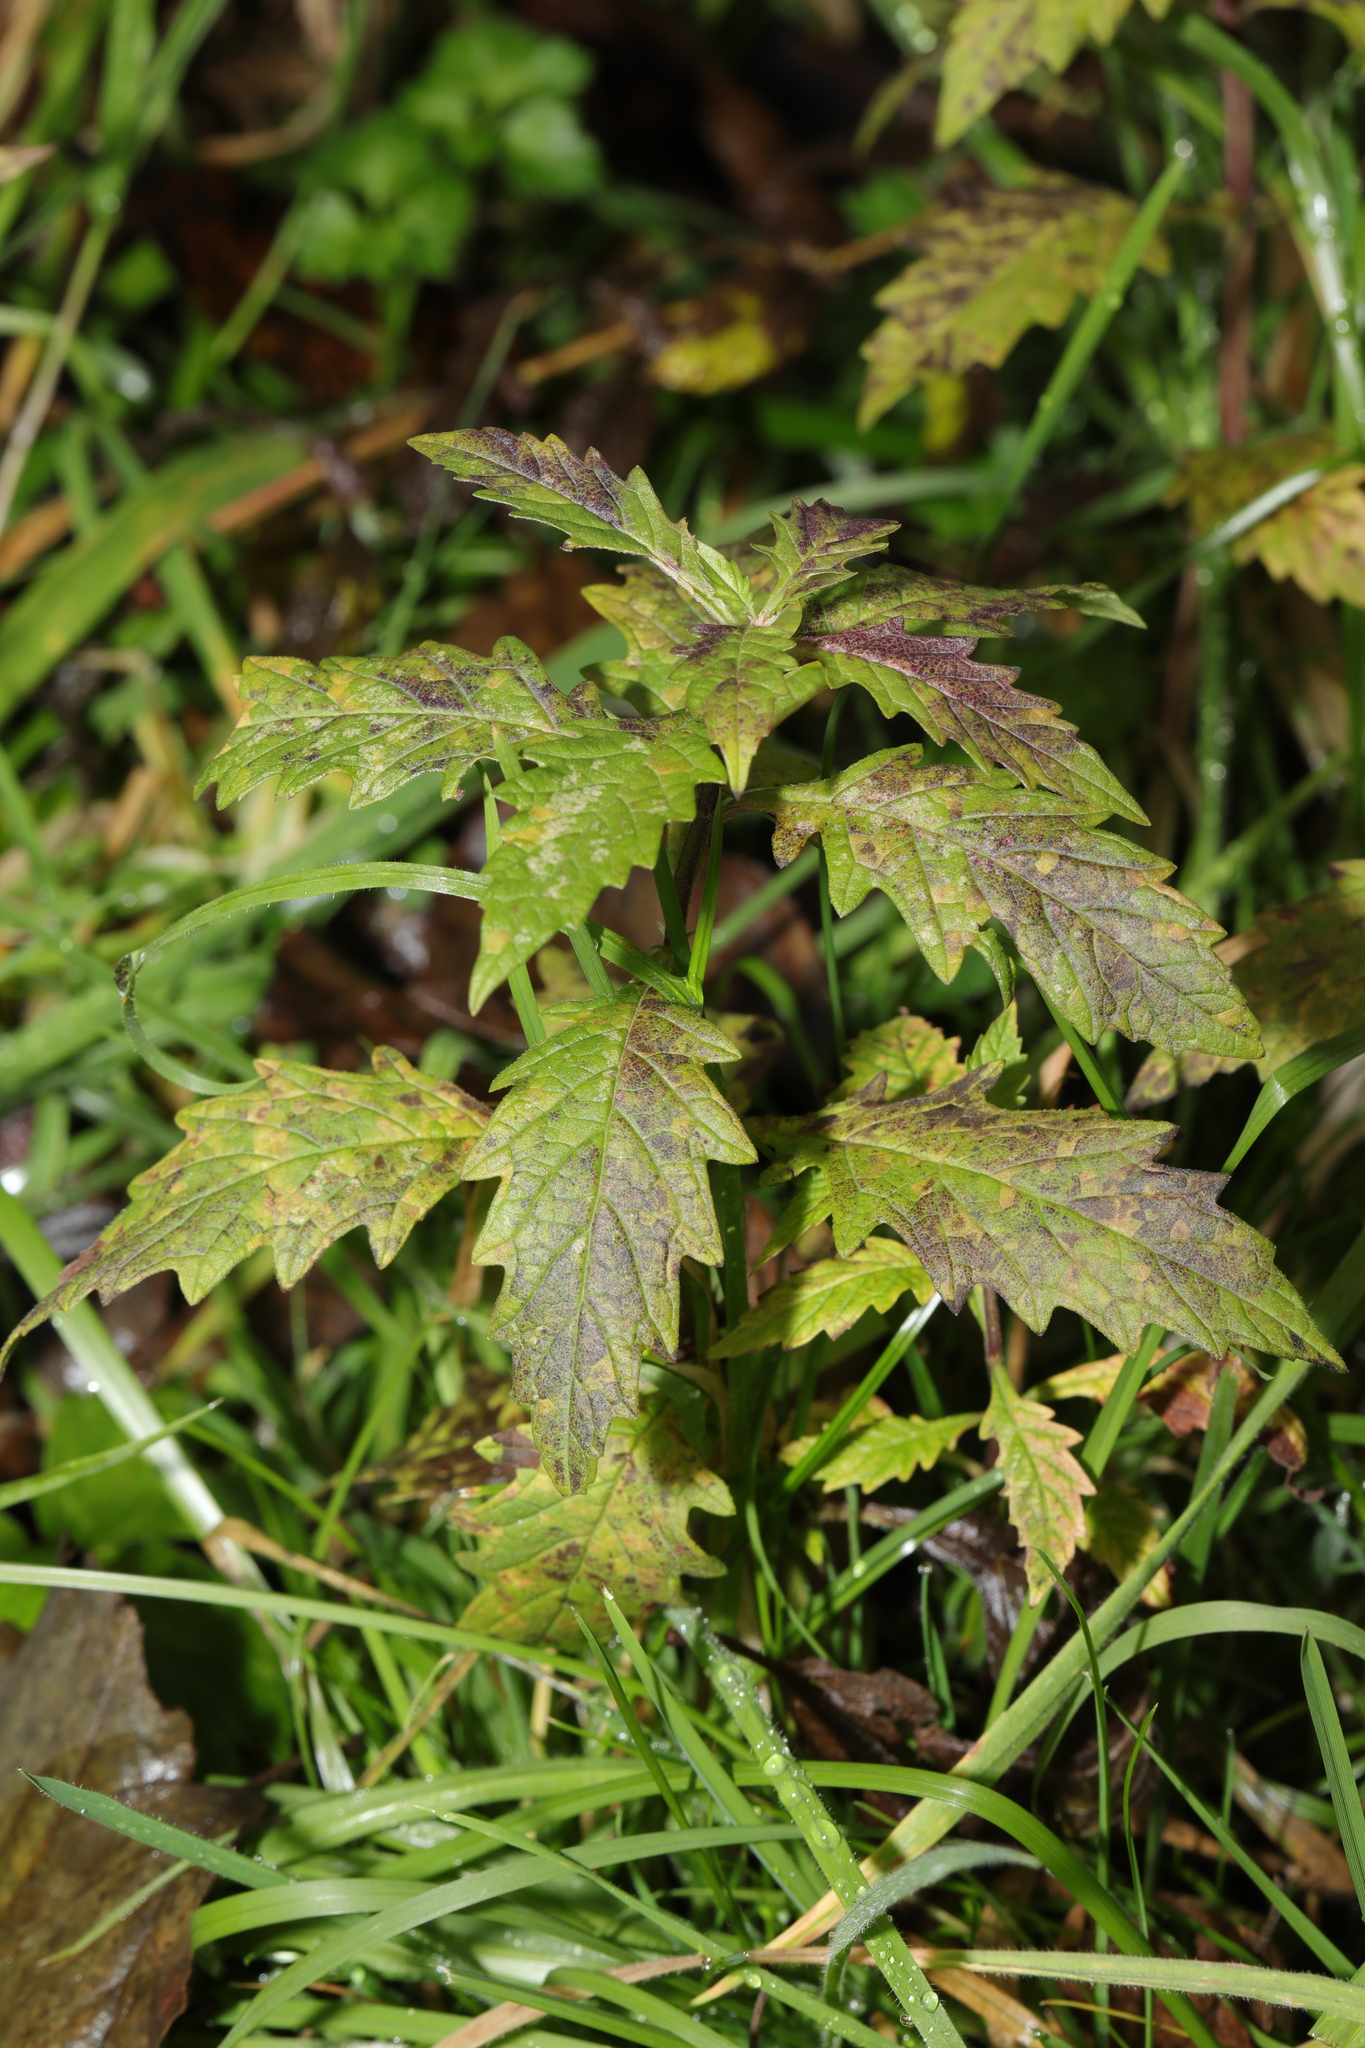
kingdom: Plantae
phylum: Tracheophyta
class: Magnoliopsida
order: Lamiales
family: Lamiaceae
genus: Lycopus
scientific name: Lycopus europaeus
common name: European bugleweed
